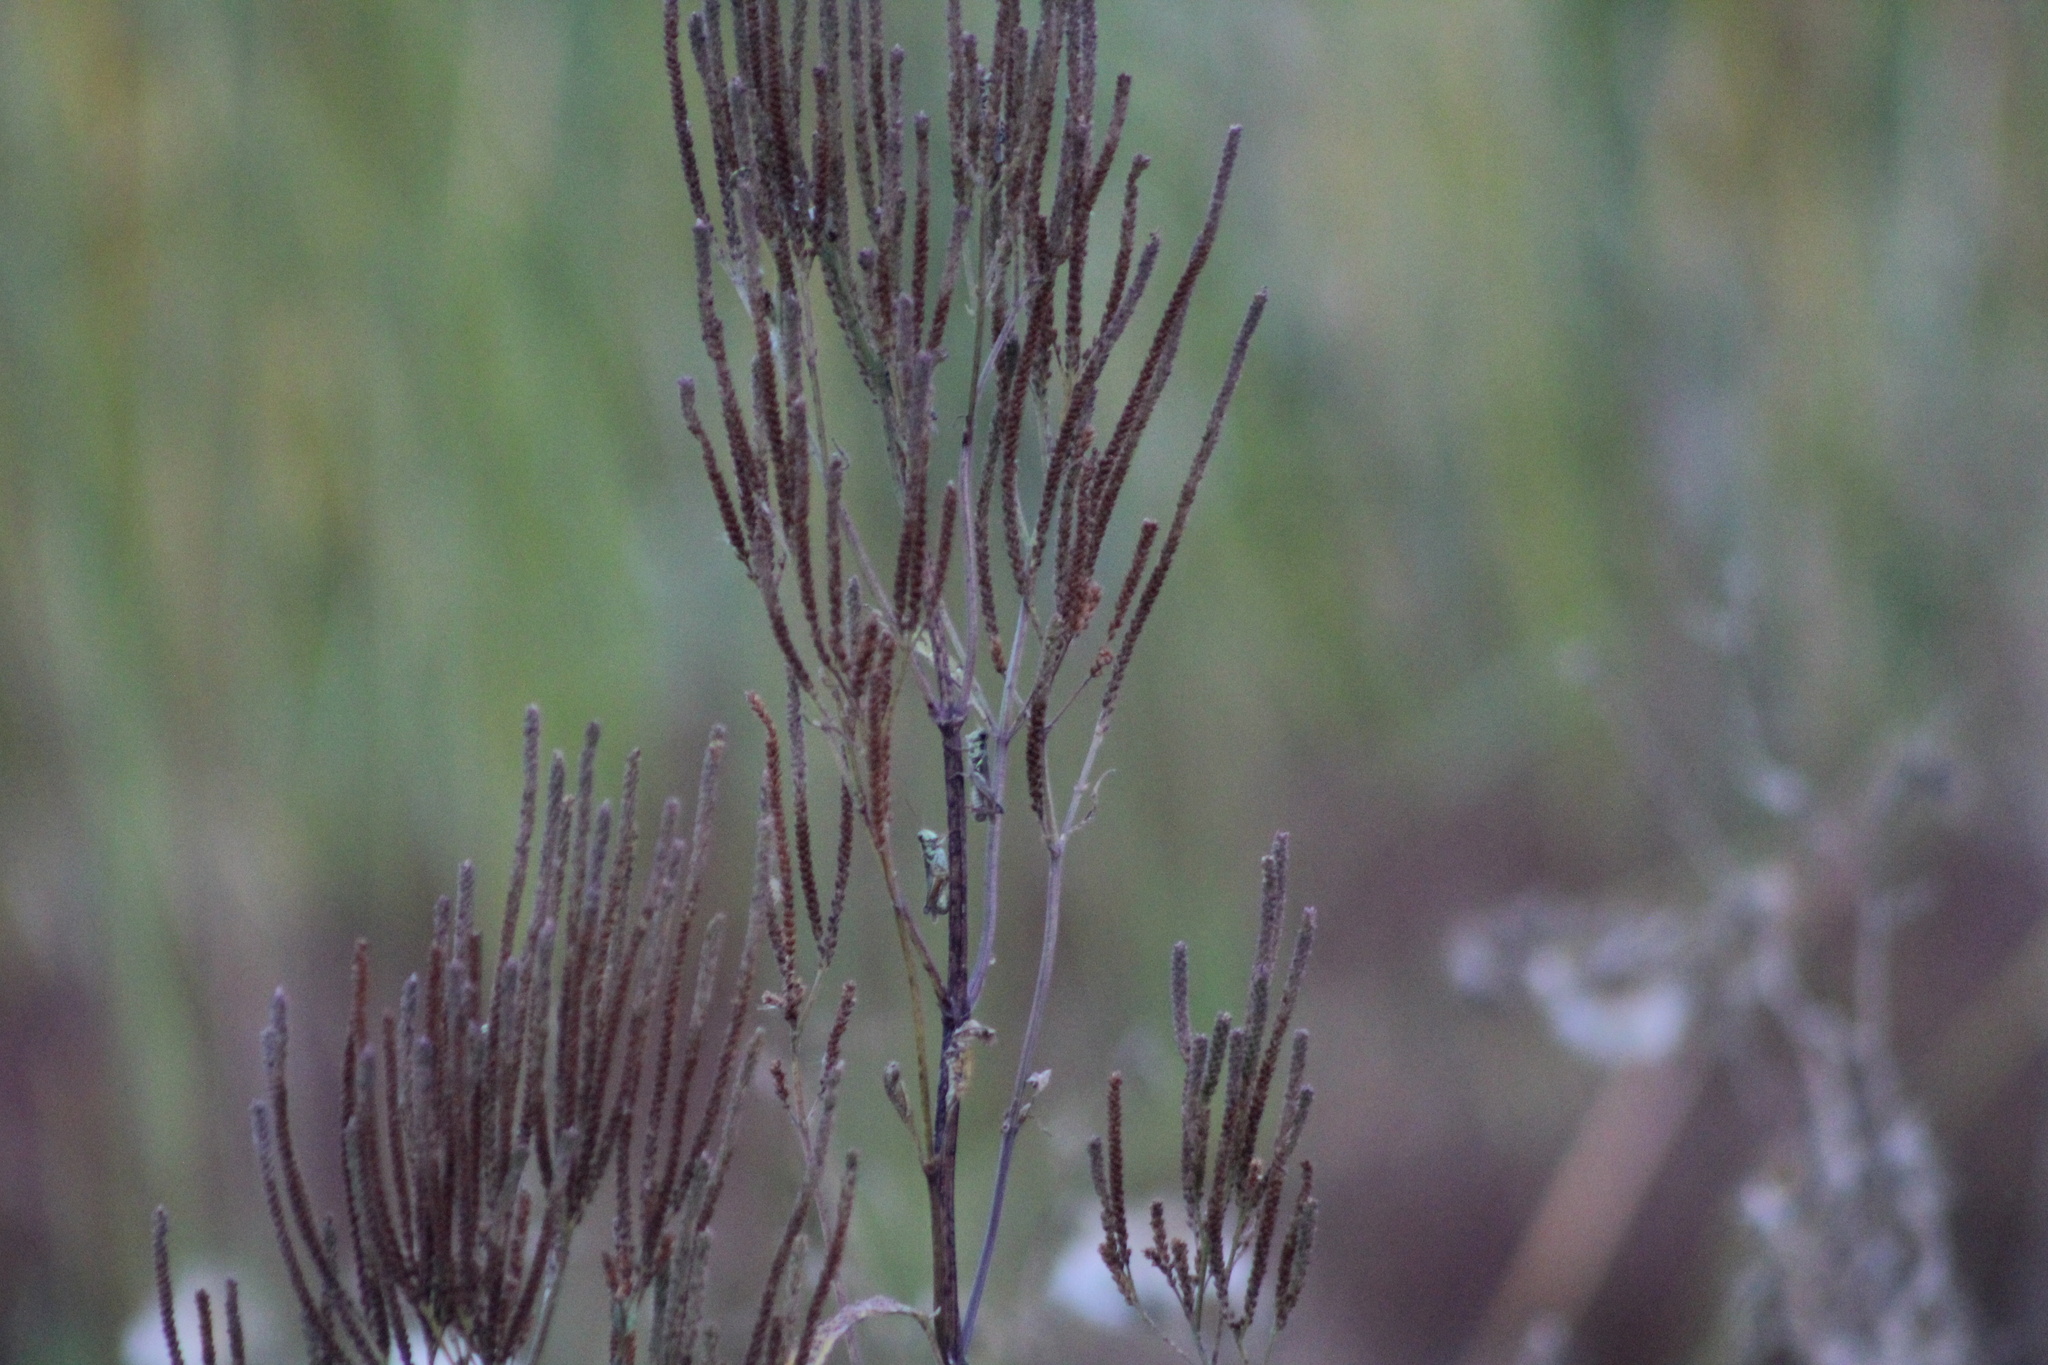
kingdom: Plantae
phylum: Tracheophyta
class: Magnoliopsida
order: Lamiales
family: Verbenaceae
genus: Verbena
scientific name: Verbena hastata
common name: American blue vervain
